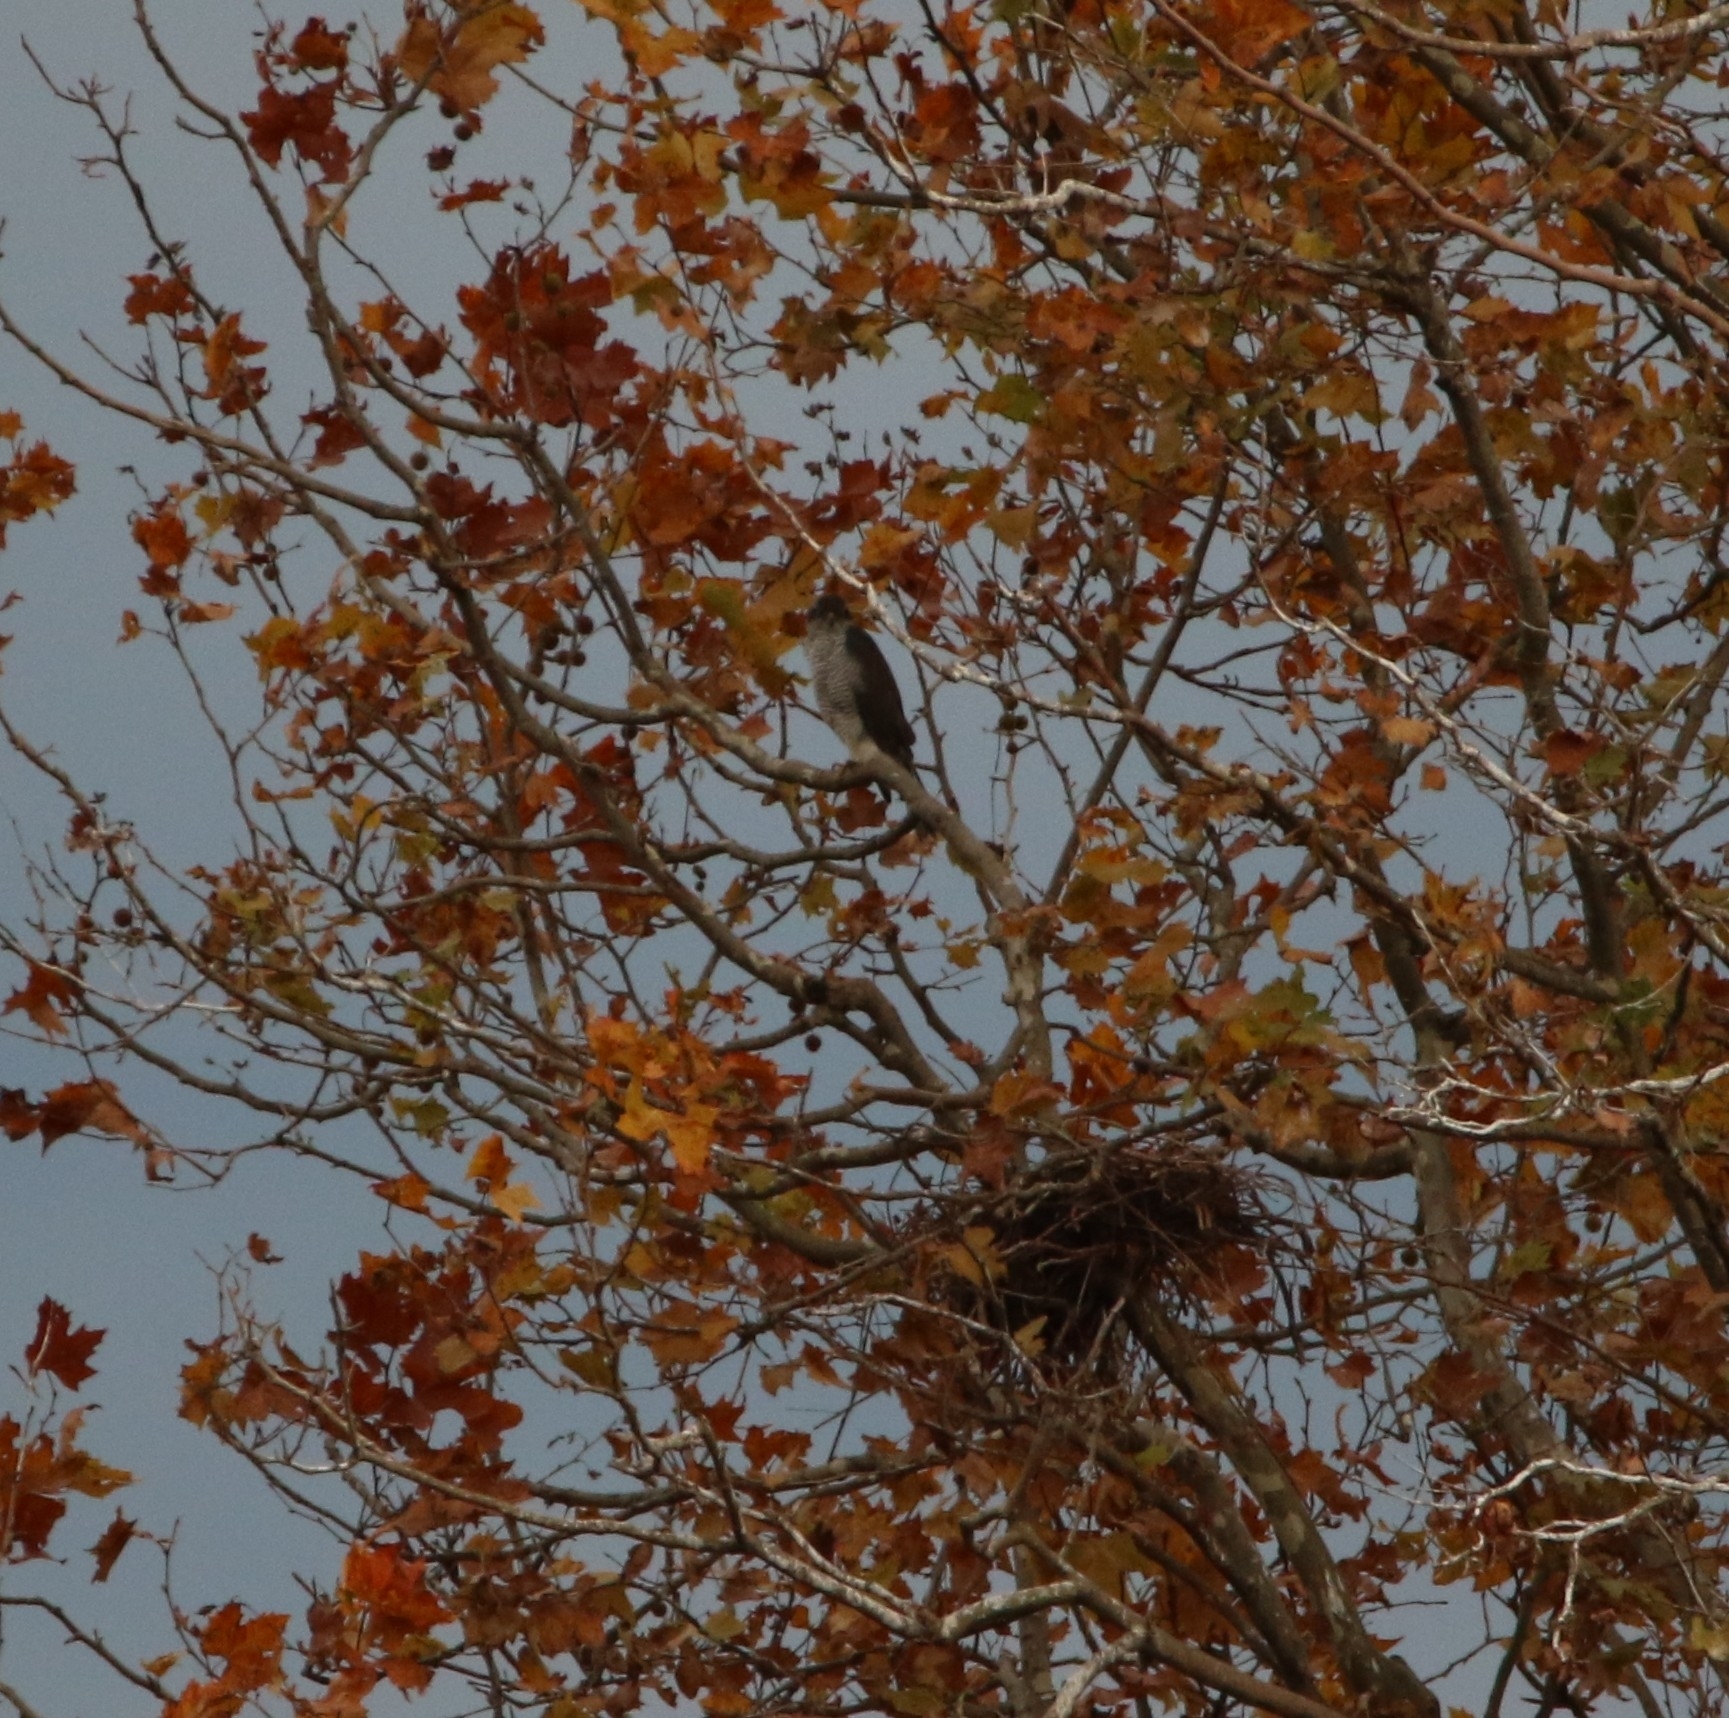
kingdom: Animalia
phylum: Chordata
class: Aves
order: Accipitriformes
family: Accipitridae
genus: Accipiter
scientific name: Accipiter gentilis
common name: Northern goshawk
